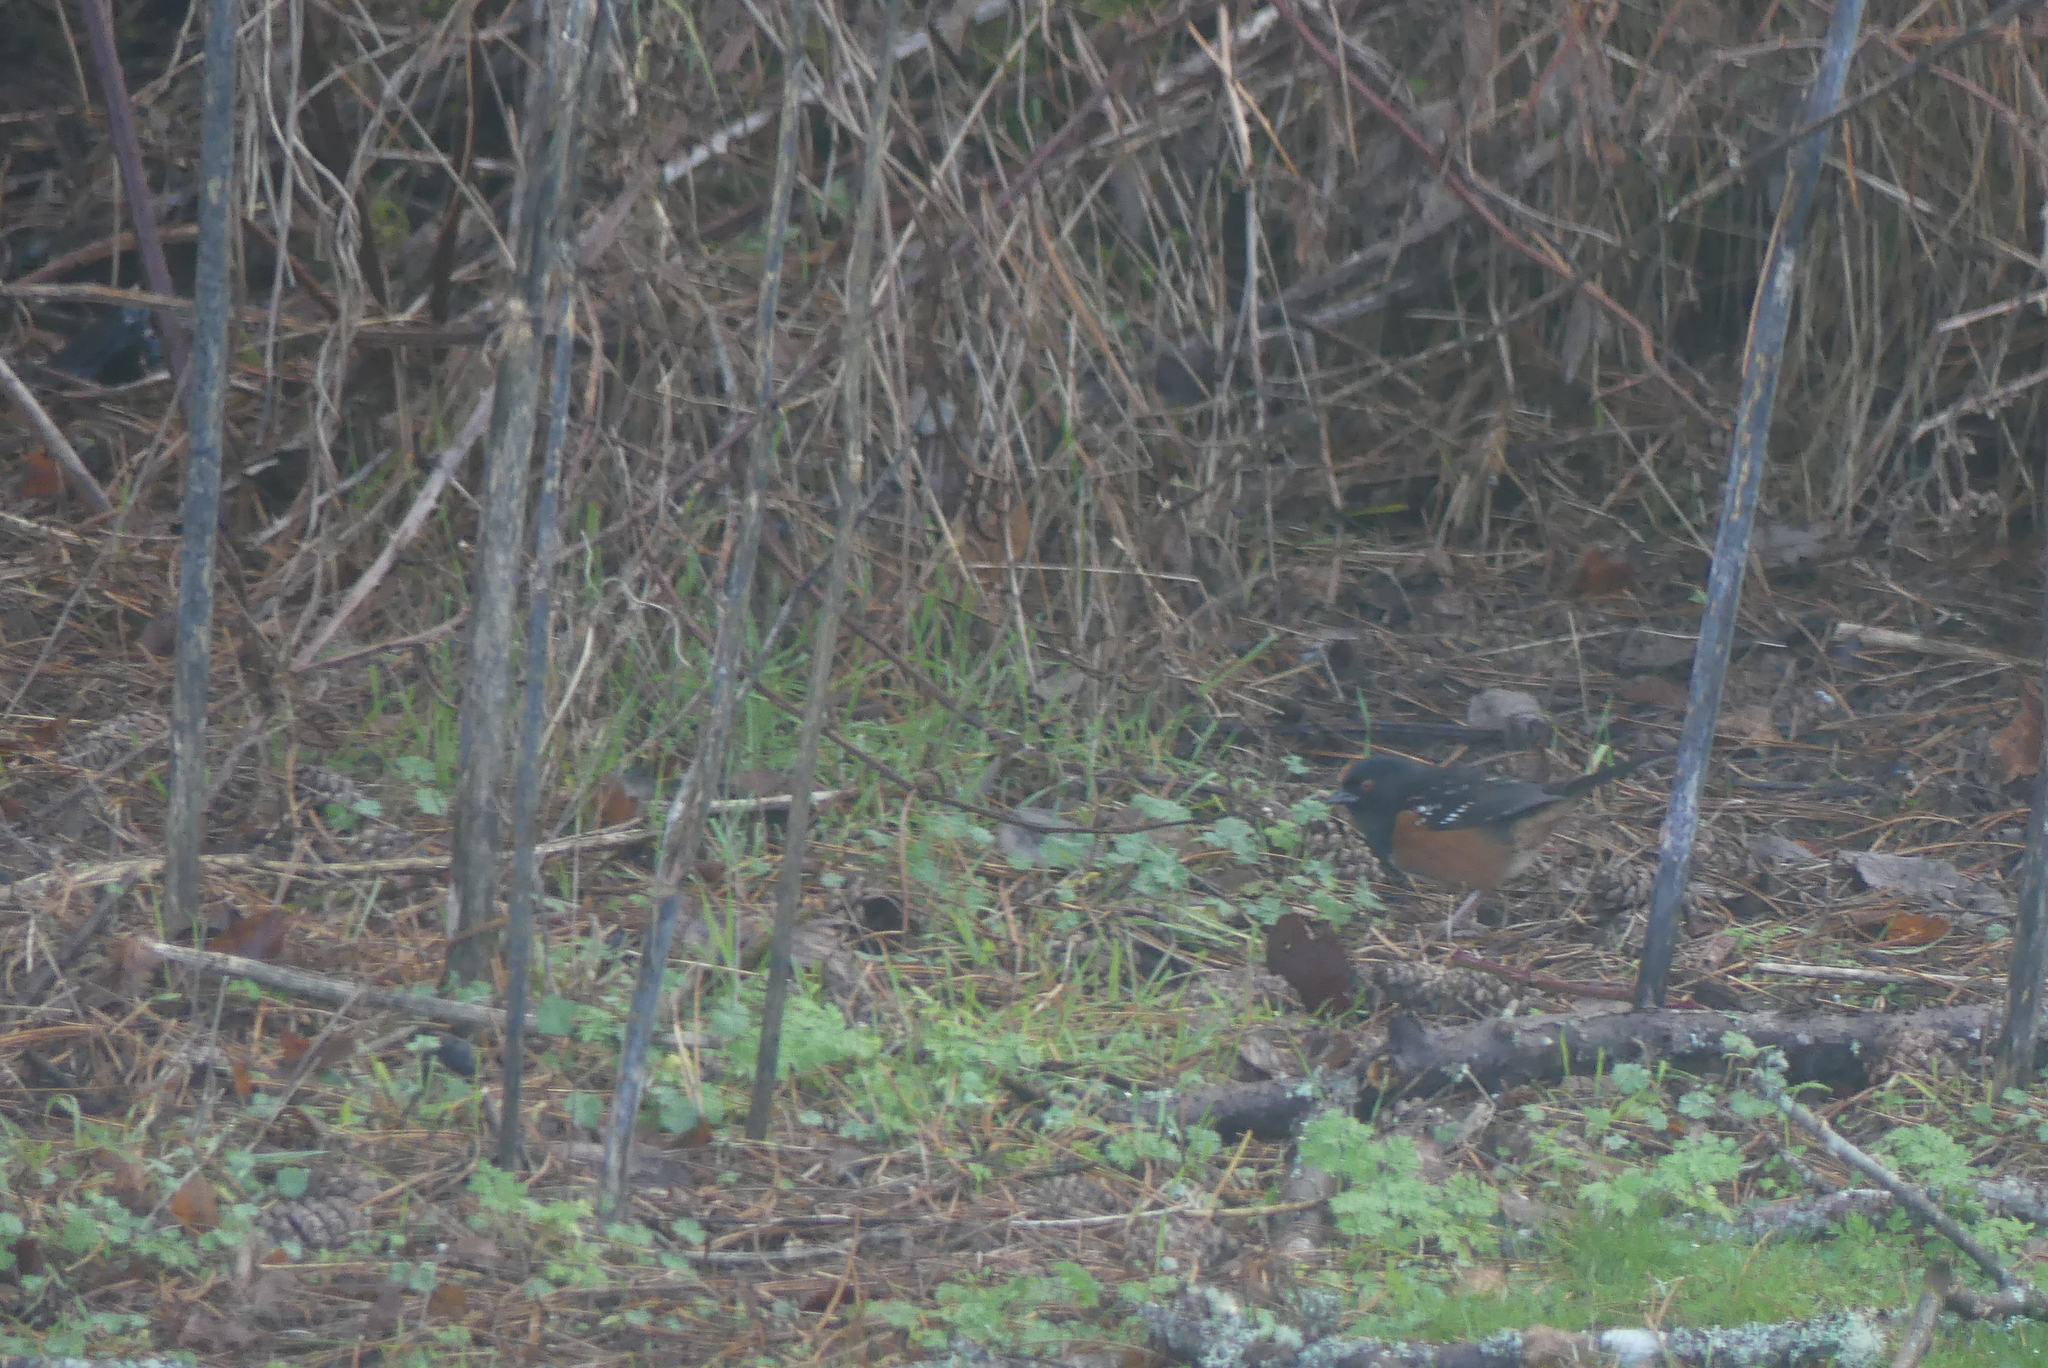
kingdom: Animalia
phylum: Chordata
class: Aves
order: Passeriformes
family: Passerellidae
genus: Pipilo
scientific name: Pipilo maculatus
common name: Spotted towhee
